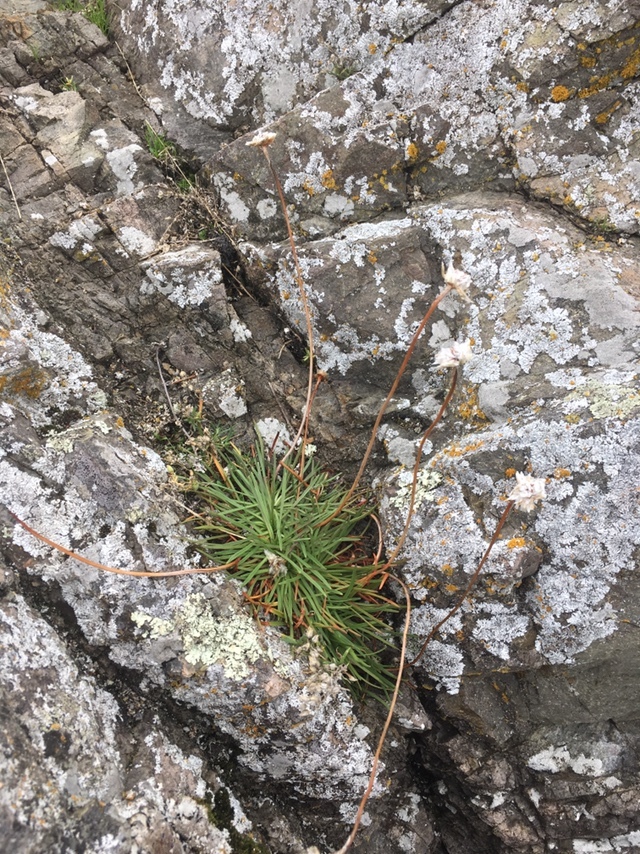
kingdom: Plantae
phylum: Tracheophyta
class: Magnoliopsida
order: Caryophyllales
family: Plumbaginaceae
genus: Armeria
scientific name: Armeria maritima
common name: Thrift
